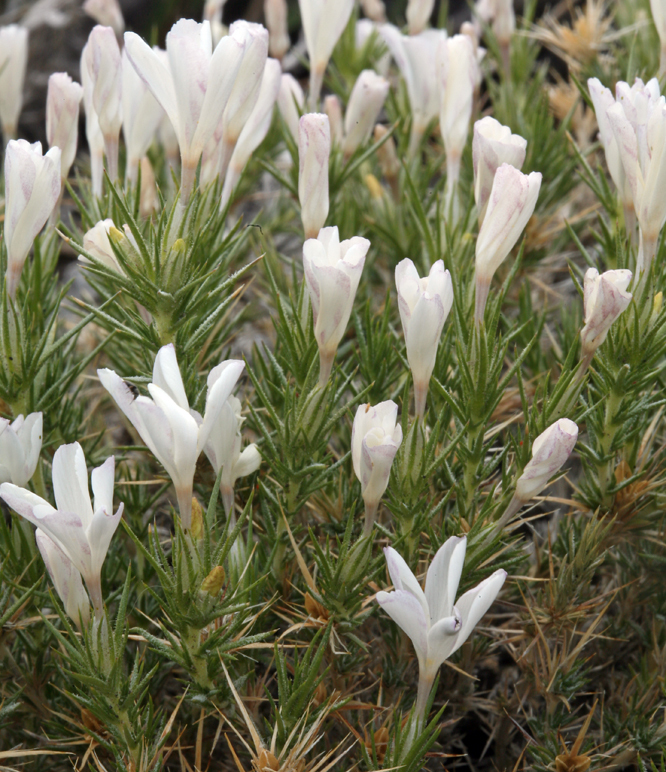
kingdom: Plantae
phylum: Tracheophyta
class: Magnoliopsida
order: Ericales
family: Polemoniaceae
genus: Linanthus
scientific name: Linanthus pungens
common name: Granite prickly phlox
